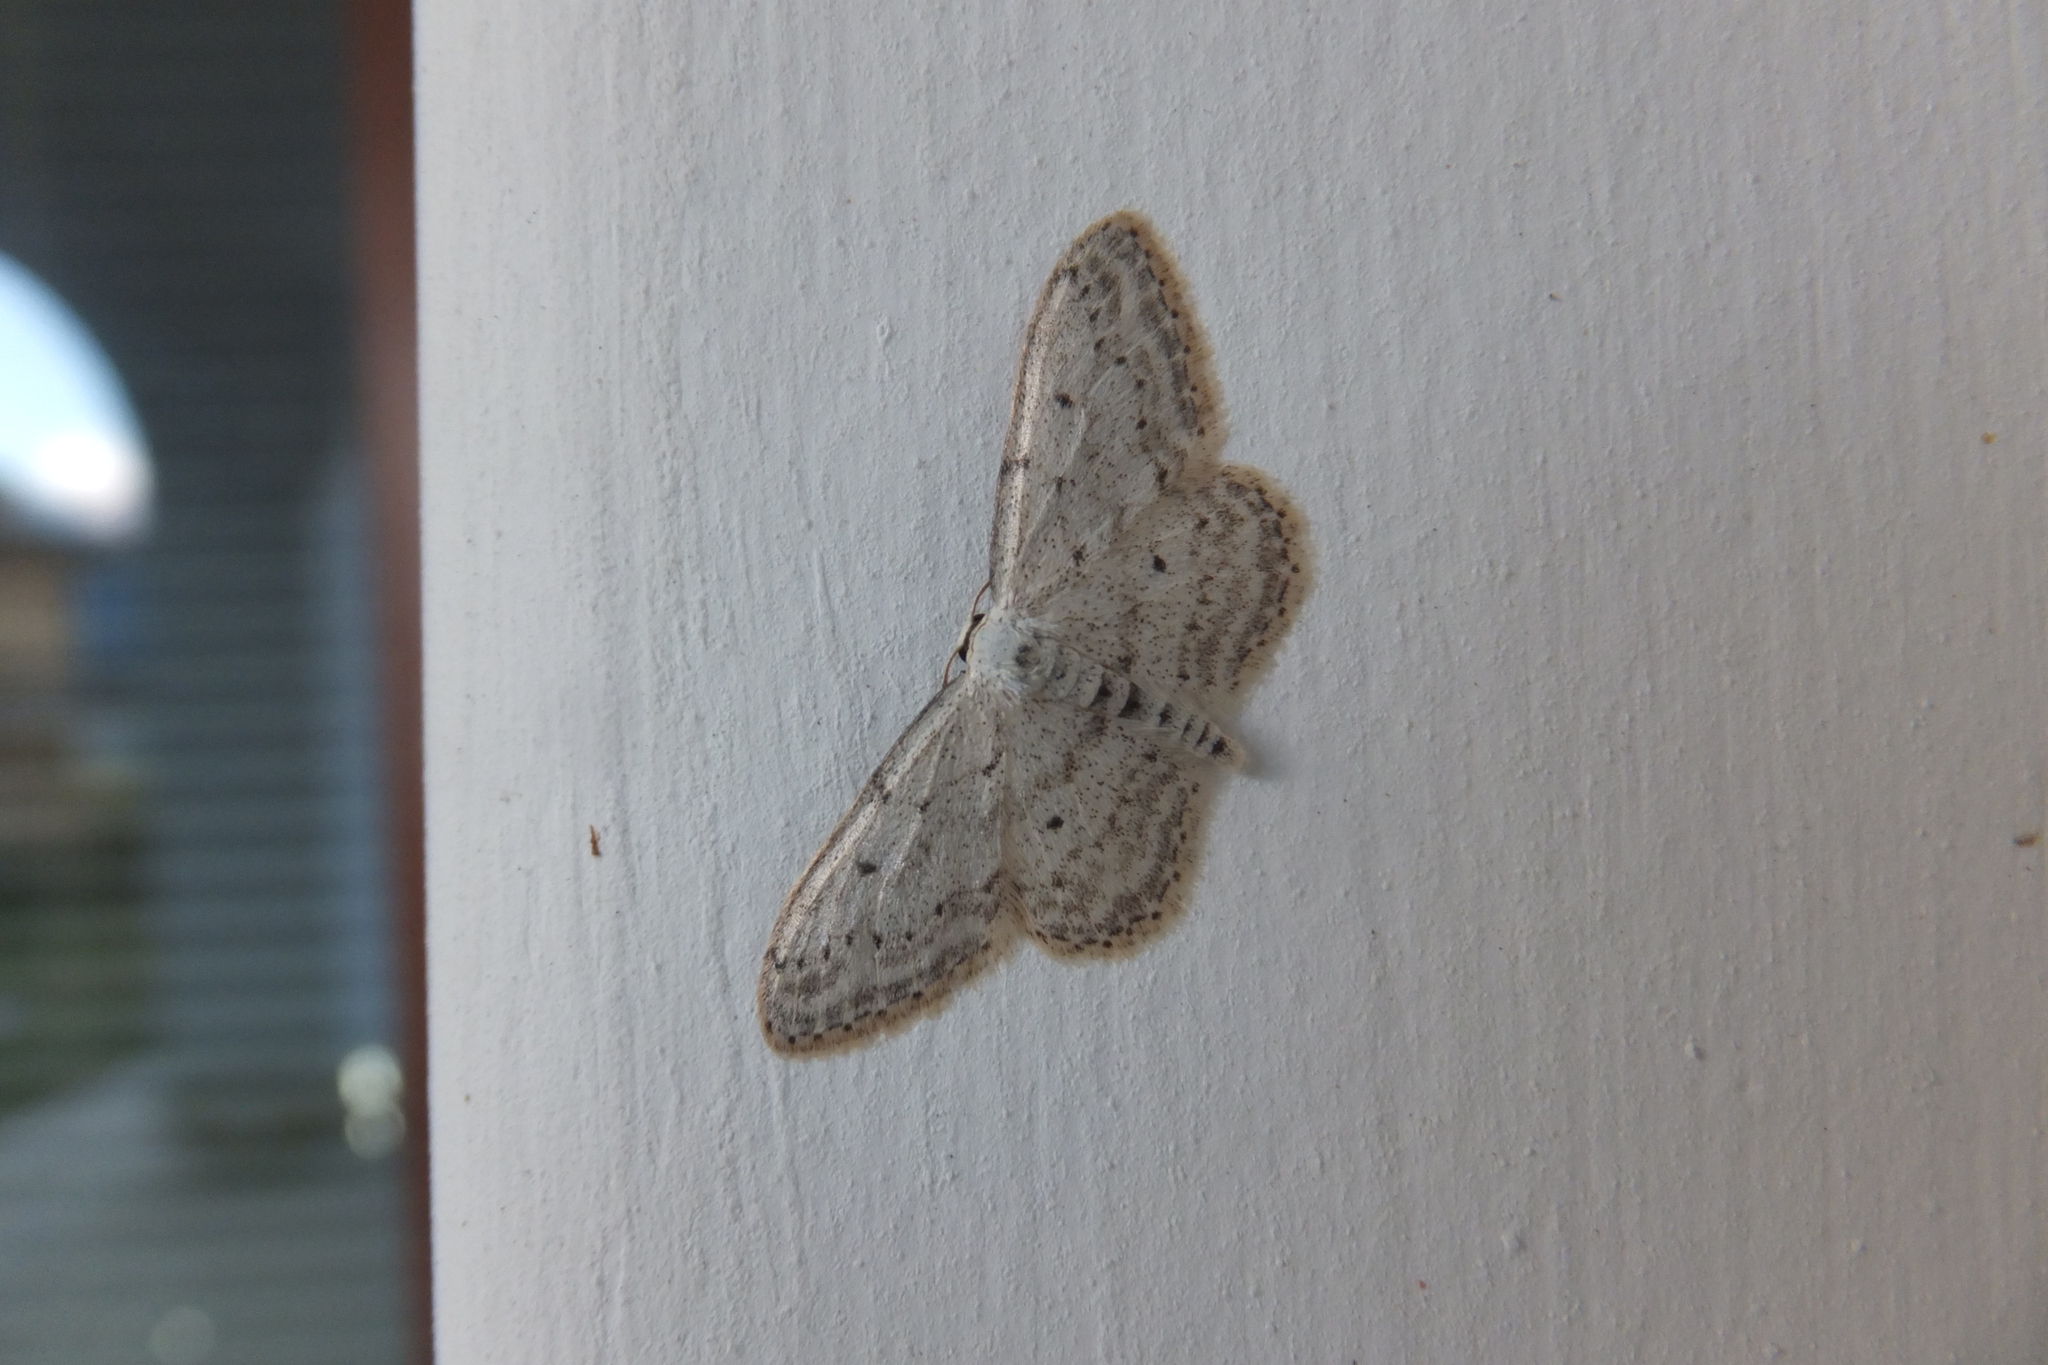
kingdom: Animalia
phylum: Arthropoda
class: Insecta
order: Lepidoptera
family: Geometridae
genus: Idaea
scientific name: Idaea seriata
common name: Small dusty wave
